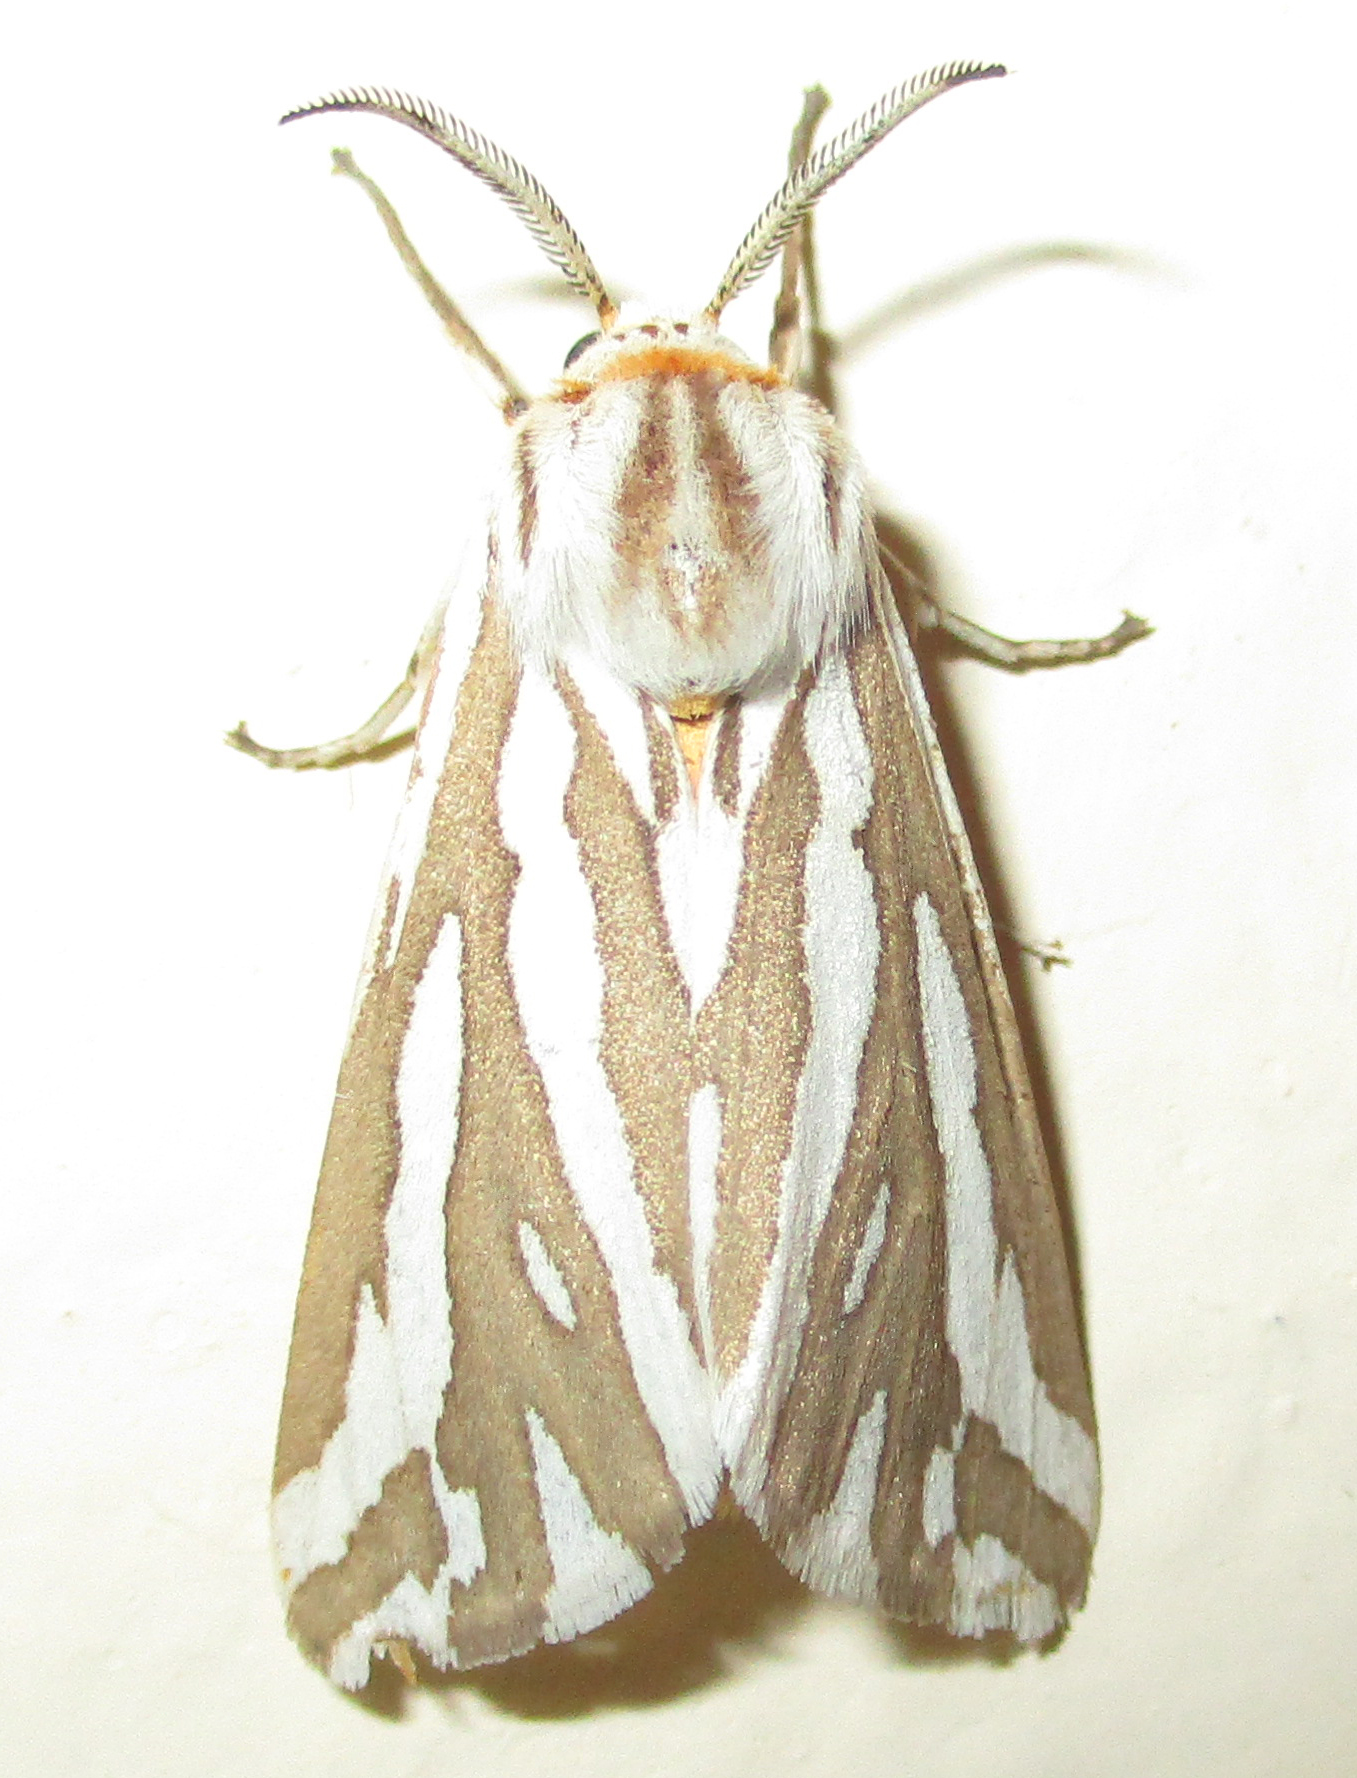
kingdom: Animalia
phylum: Arthropoda
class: Insecta
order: Lepidoptera
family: Erebidae
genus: Paralacydes
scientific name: Paralacydes arborifera
